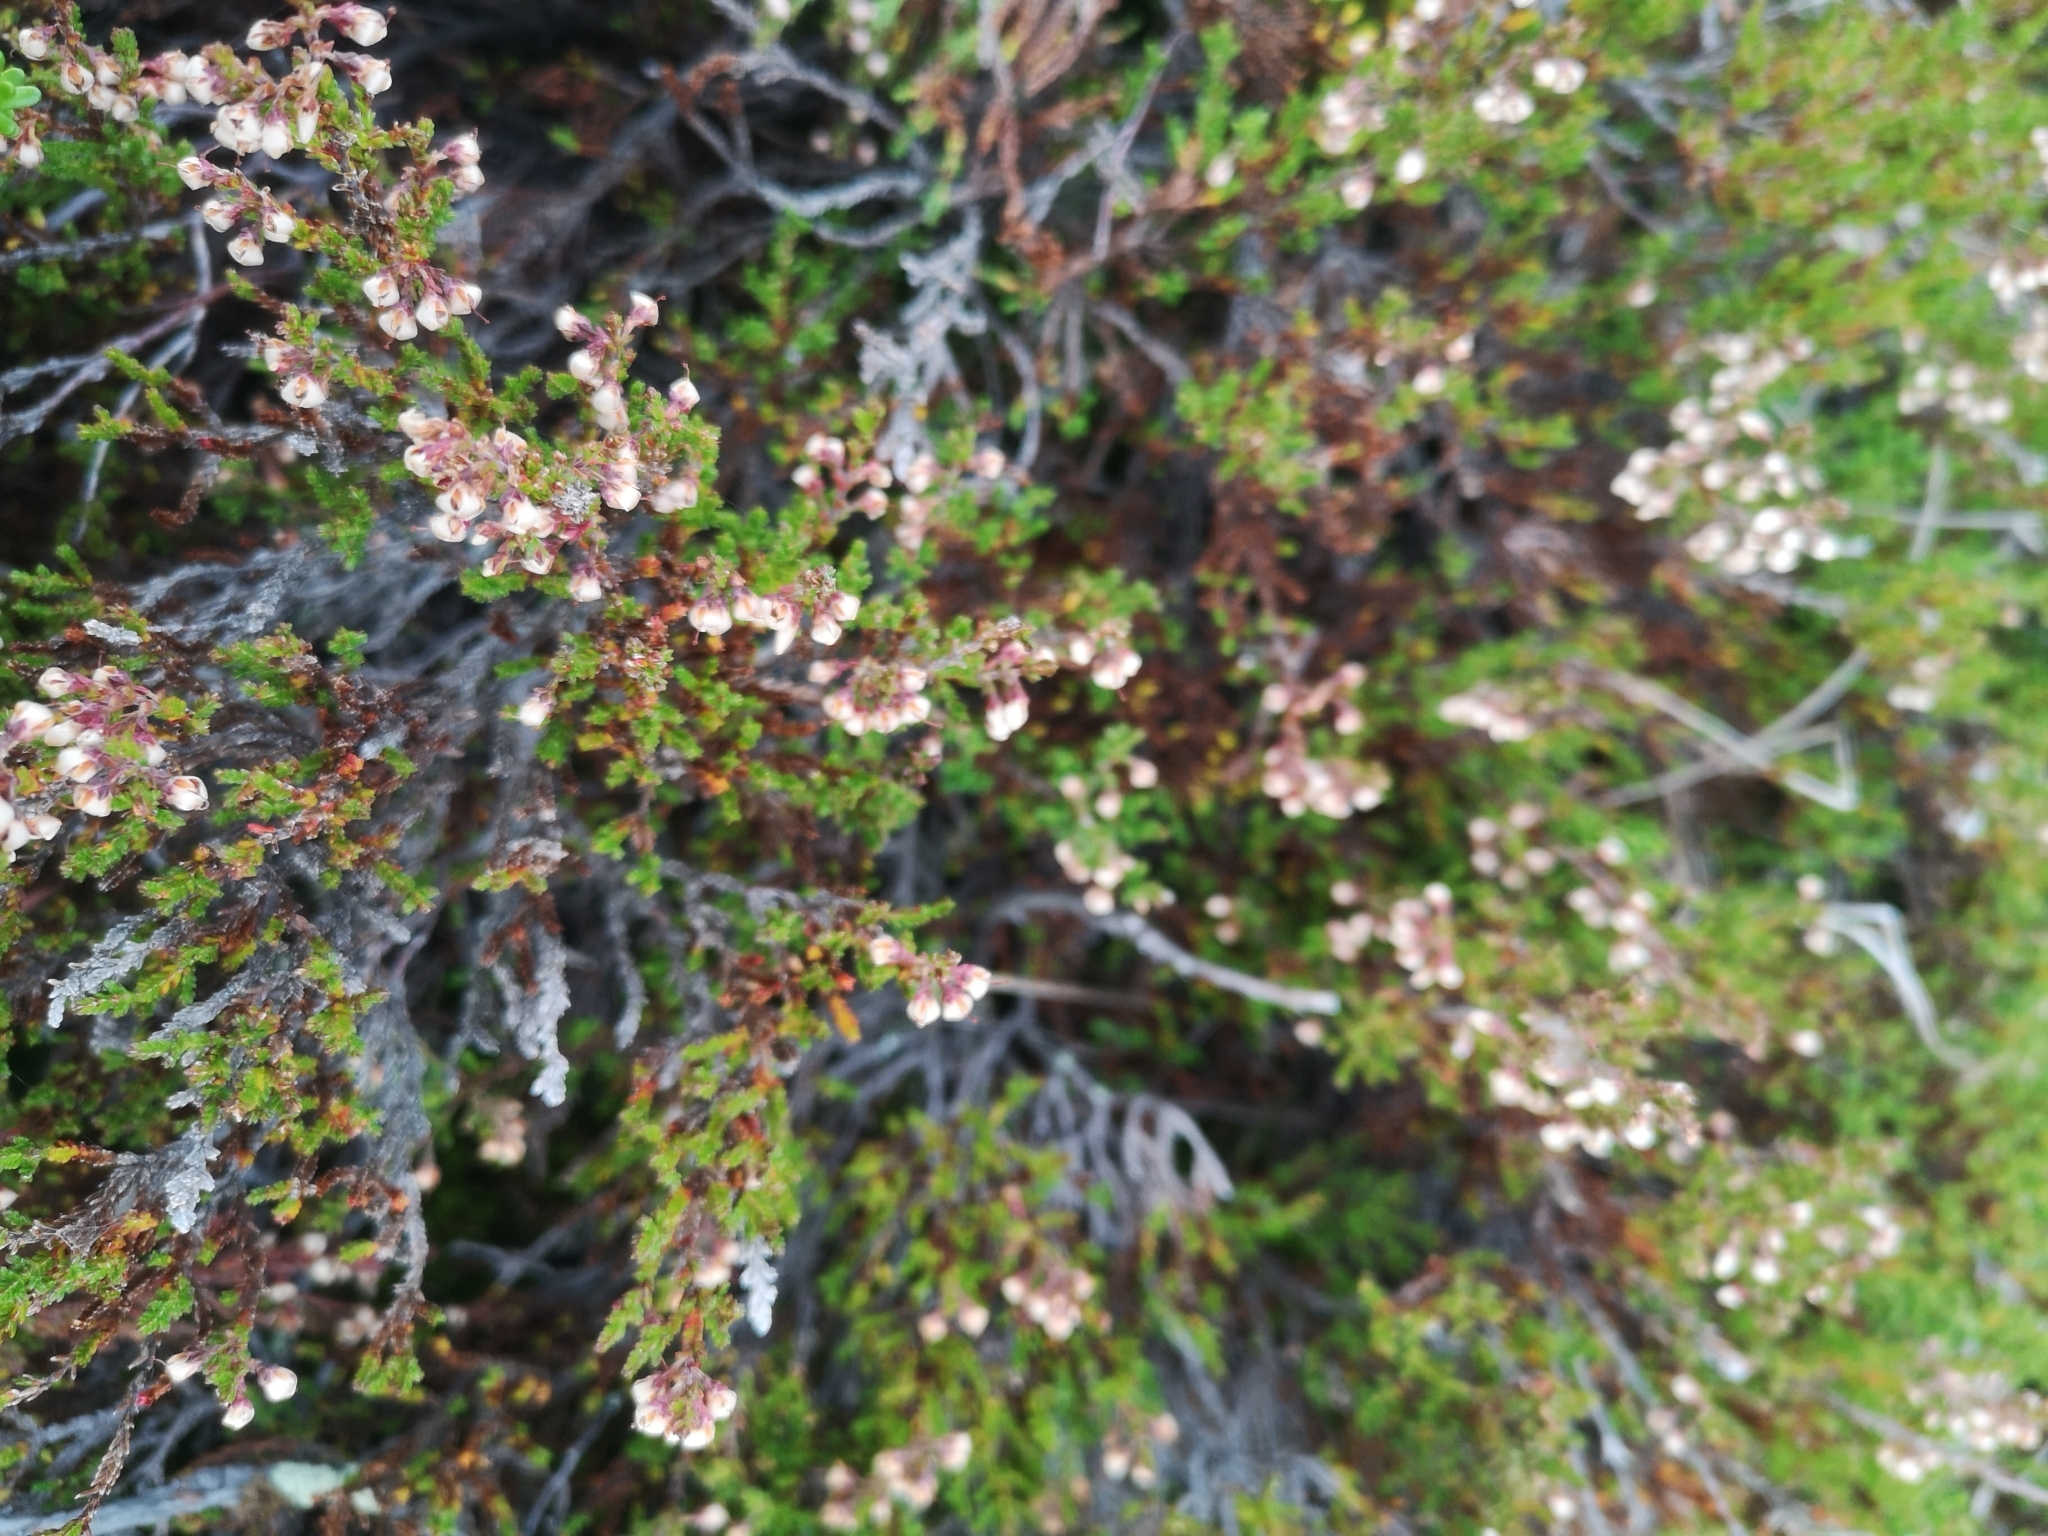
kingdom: Plantae
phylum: Tracheophyta
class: Magnoliopsida
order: Ericales
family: Ericaceae
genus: Calluna
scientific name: Calluna vulgaris
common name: Heather
